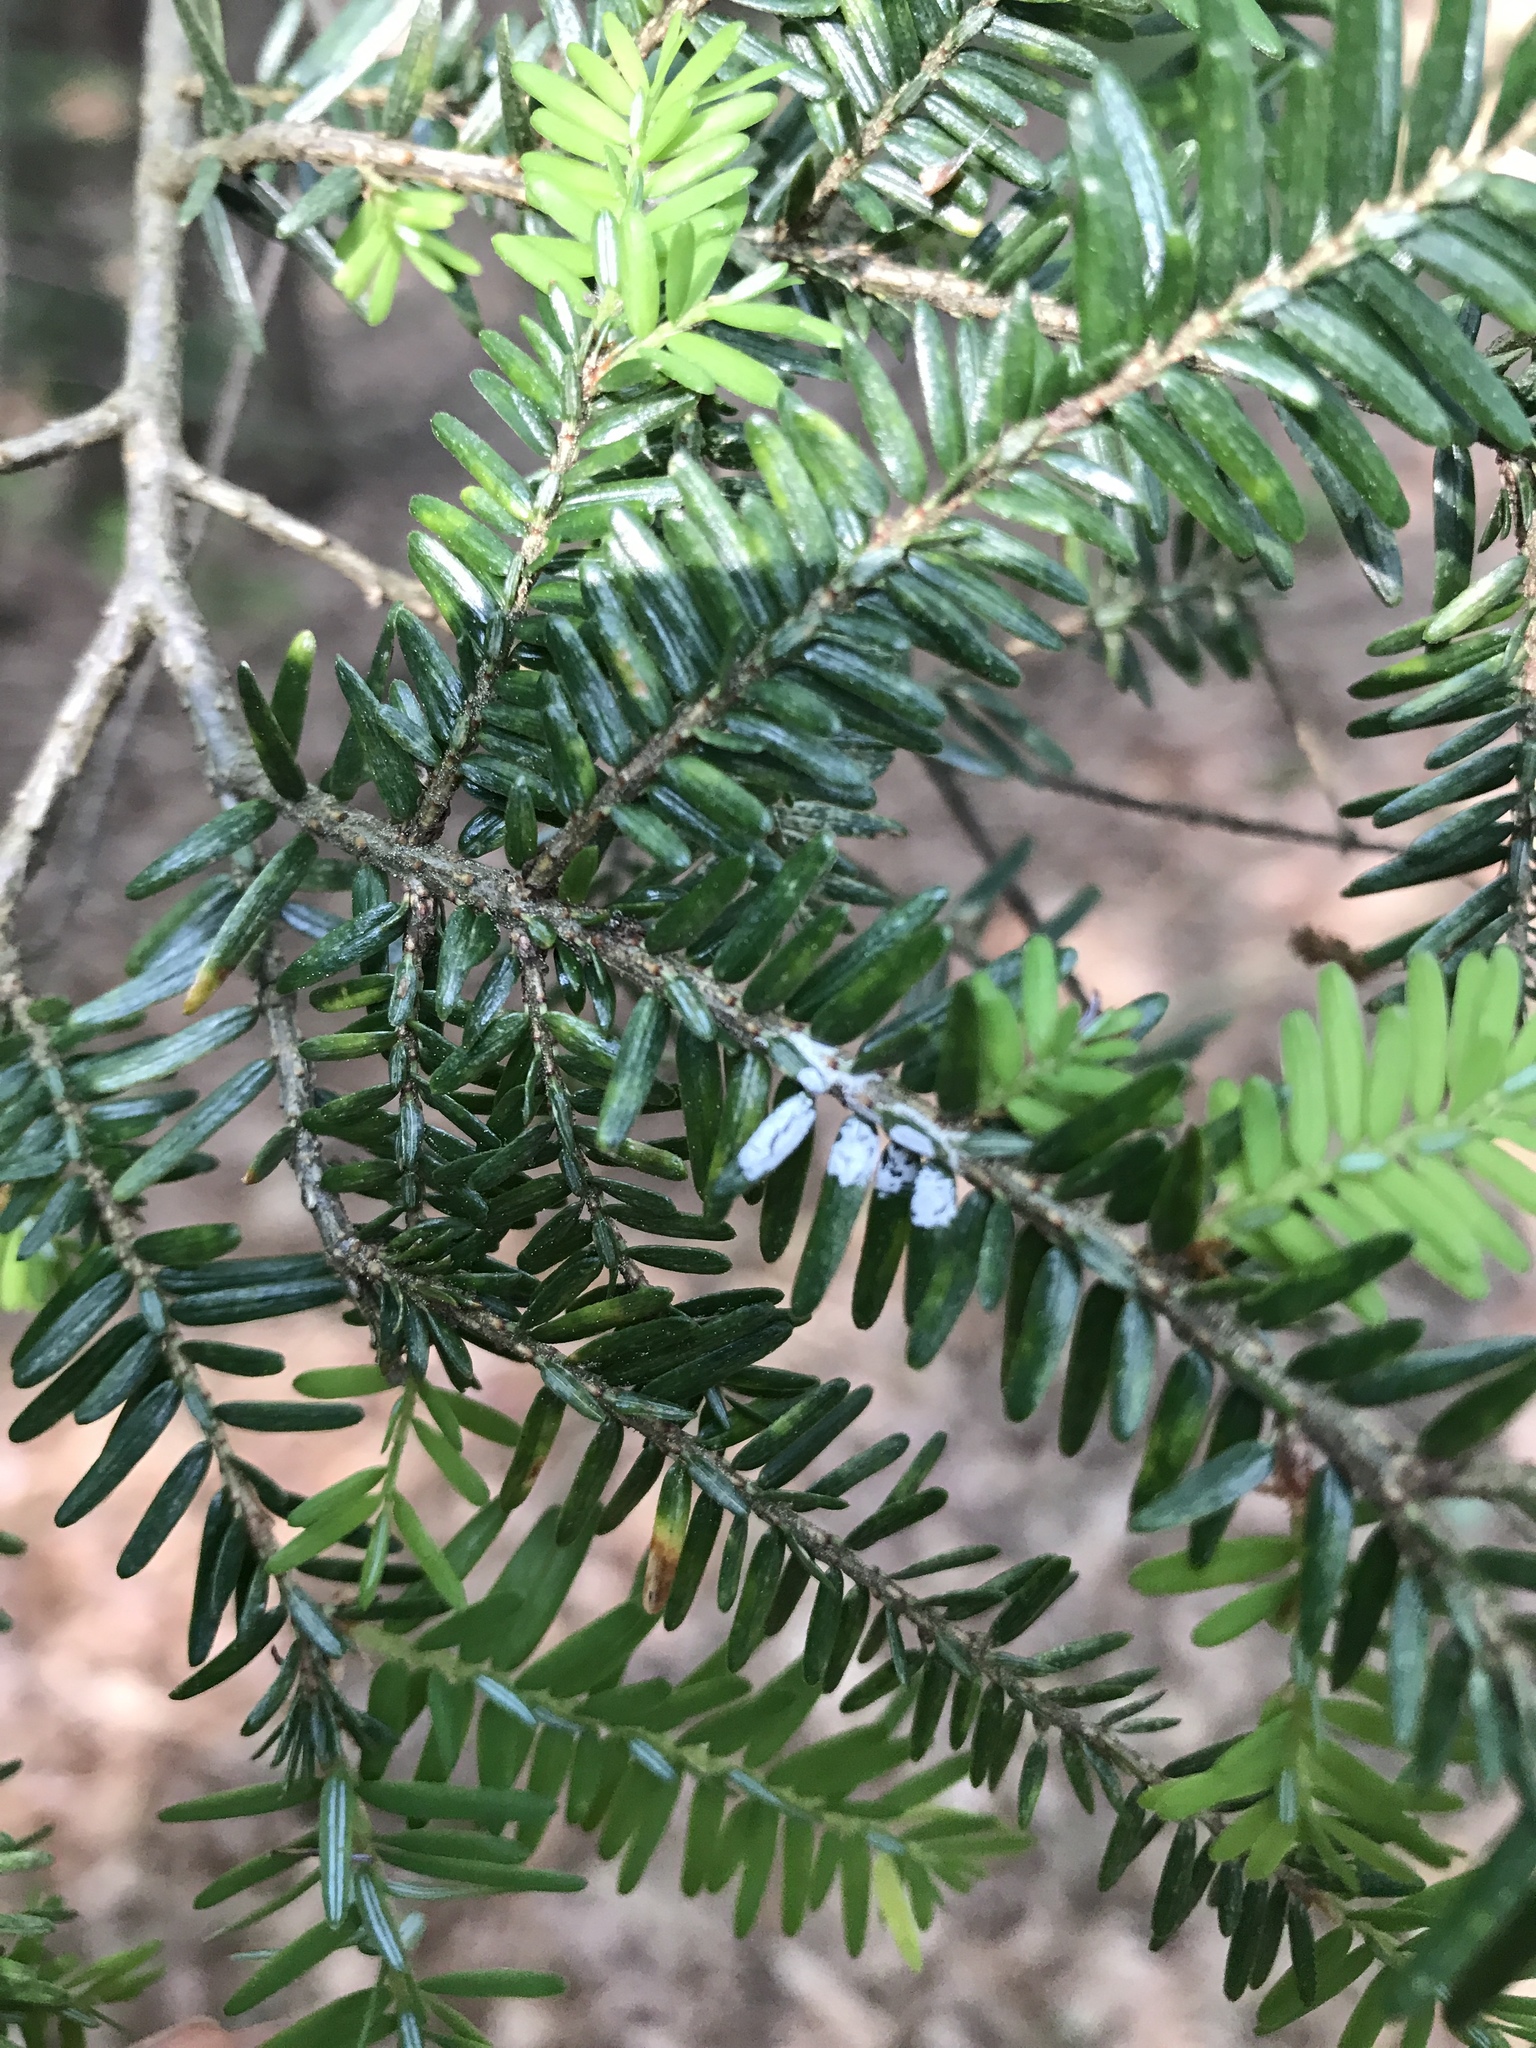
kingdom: Animalia
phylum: Arthropoda
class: Insecta
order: Hemiptera
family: Adelgidae
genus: Adelges
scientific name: Adelges tsugae
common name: Hemlock woolly adelgid
